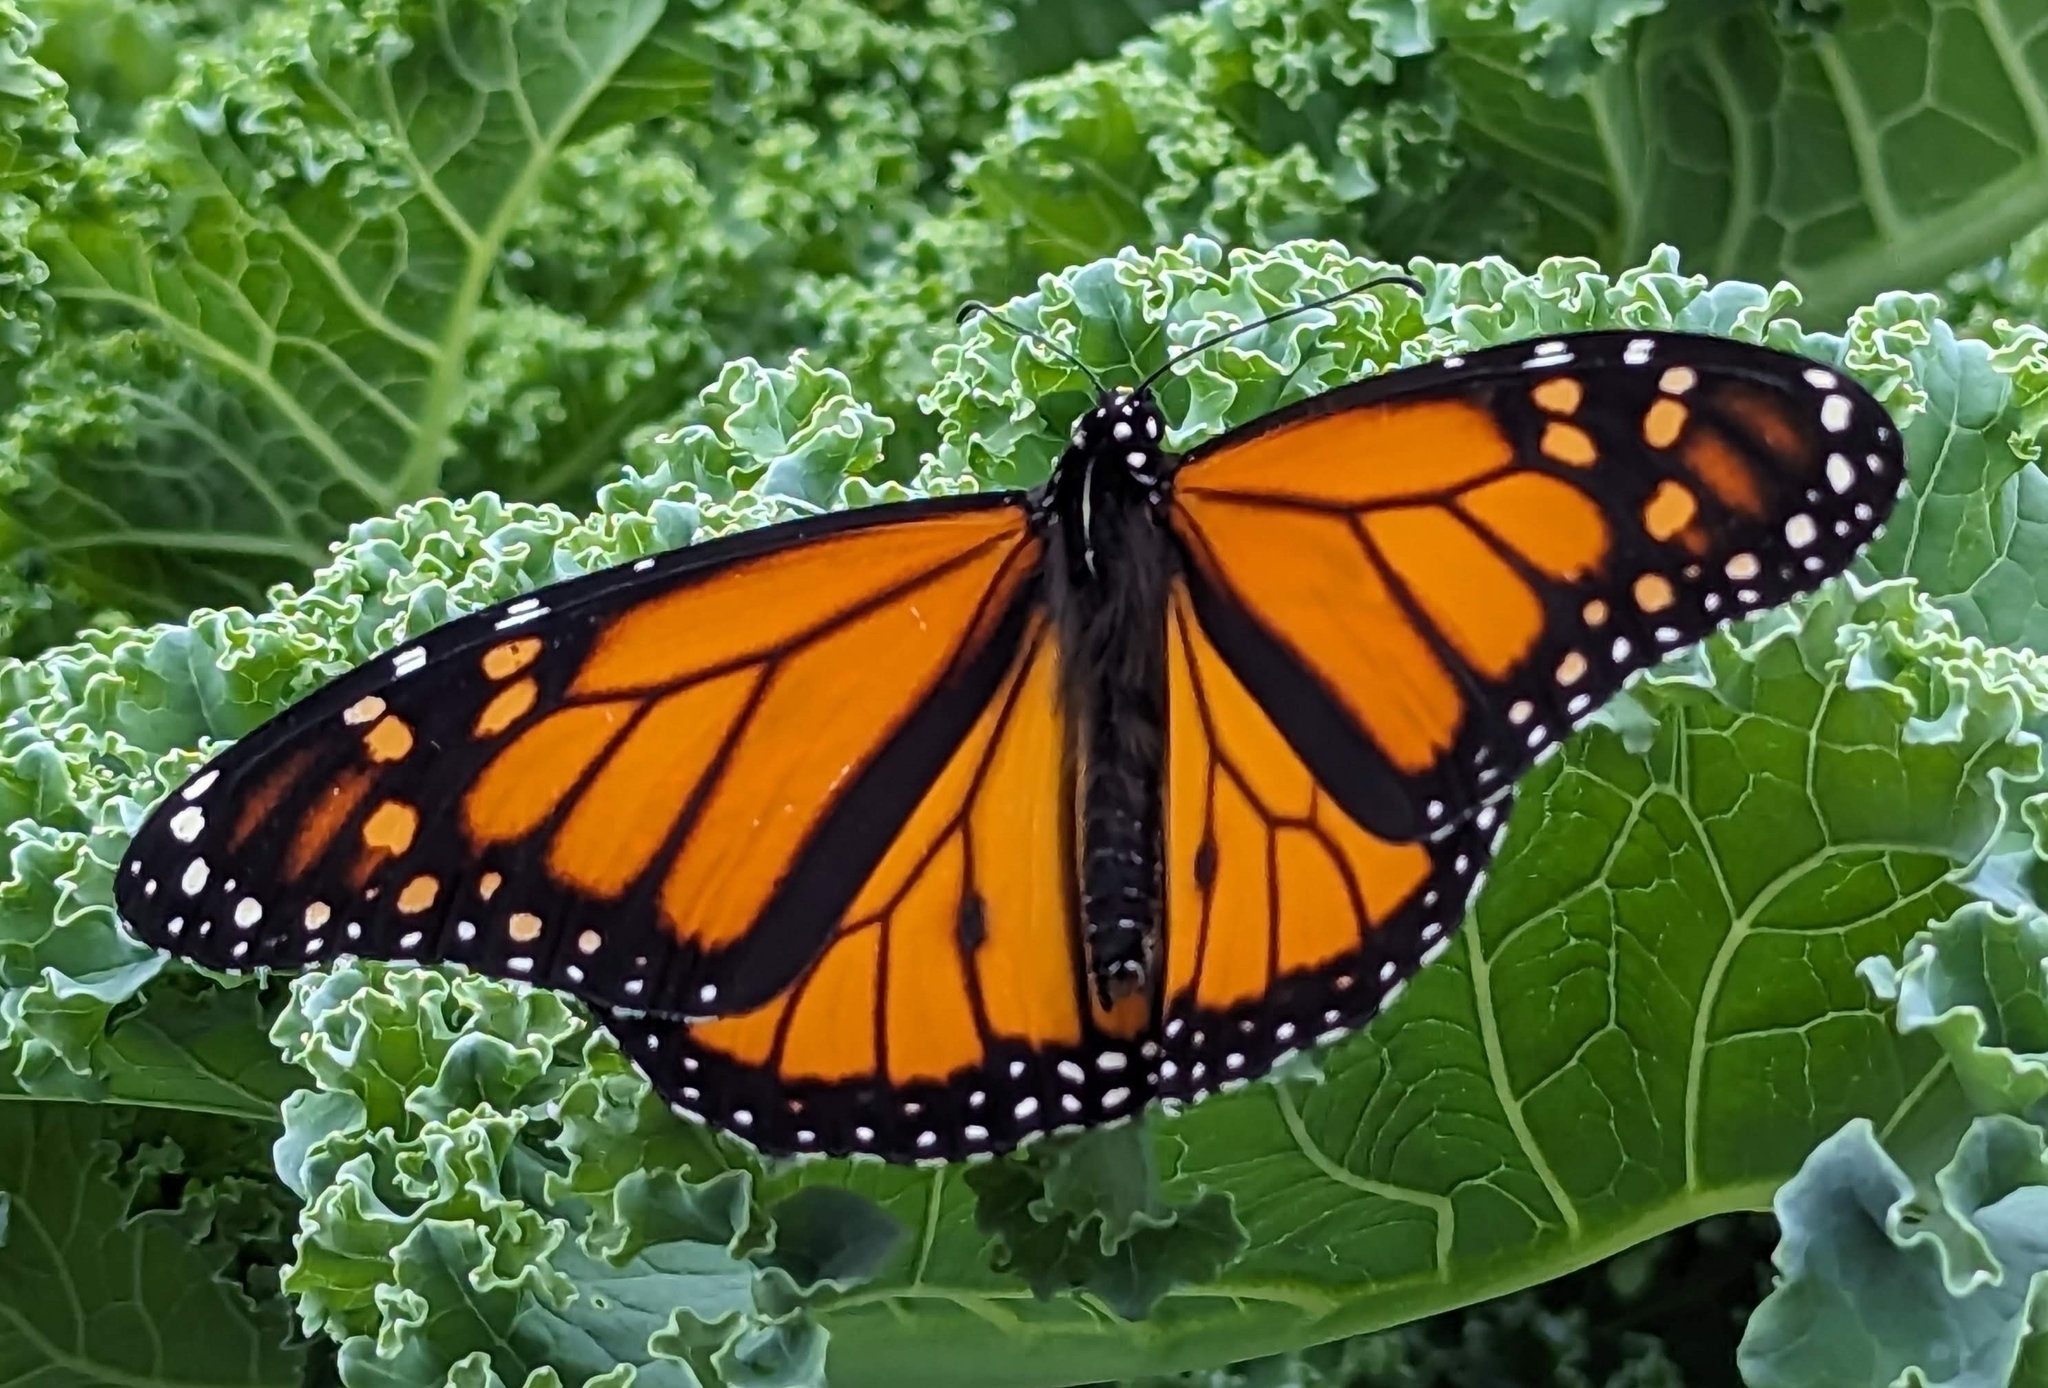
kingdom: Animalia
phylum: Arthropoda
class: Insecta
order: Lepidoptera
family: Nymphalidae
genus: Danaus
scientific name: Danaus plexippus
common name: Monarch
